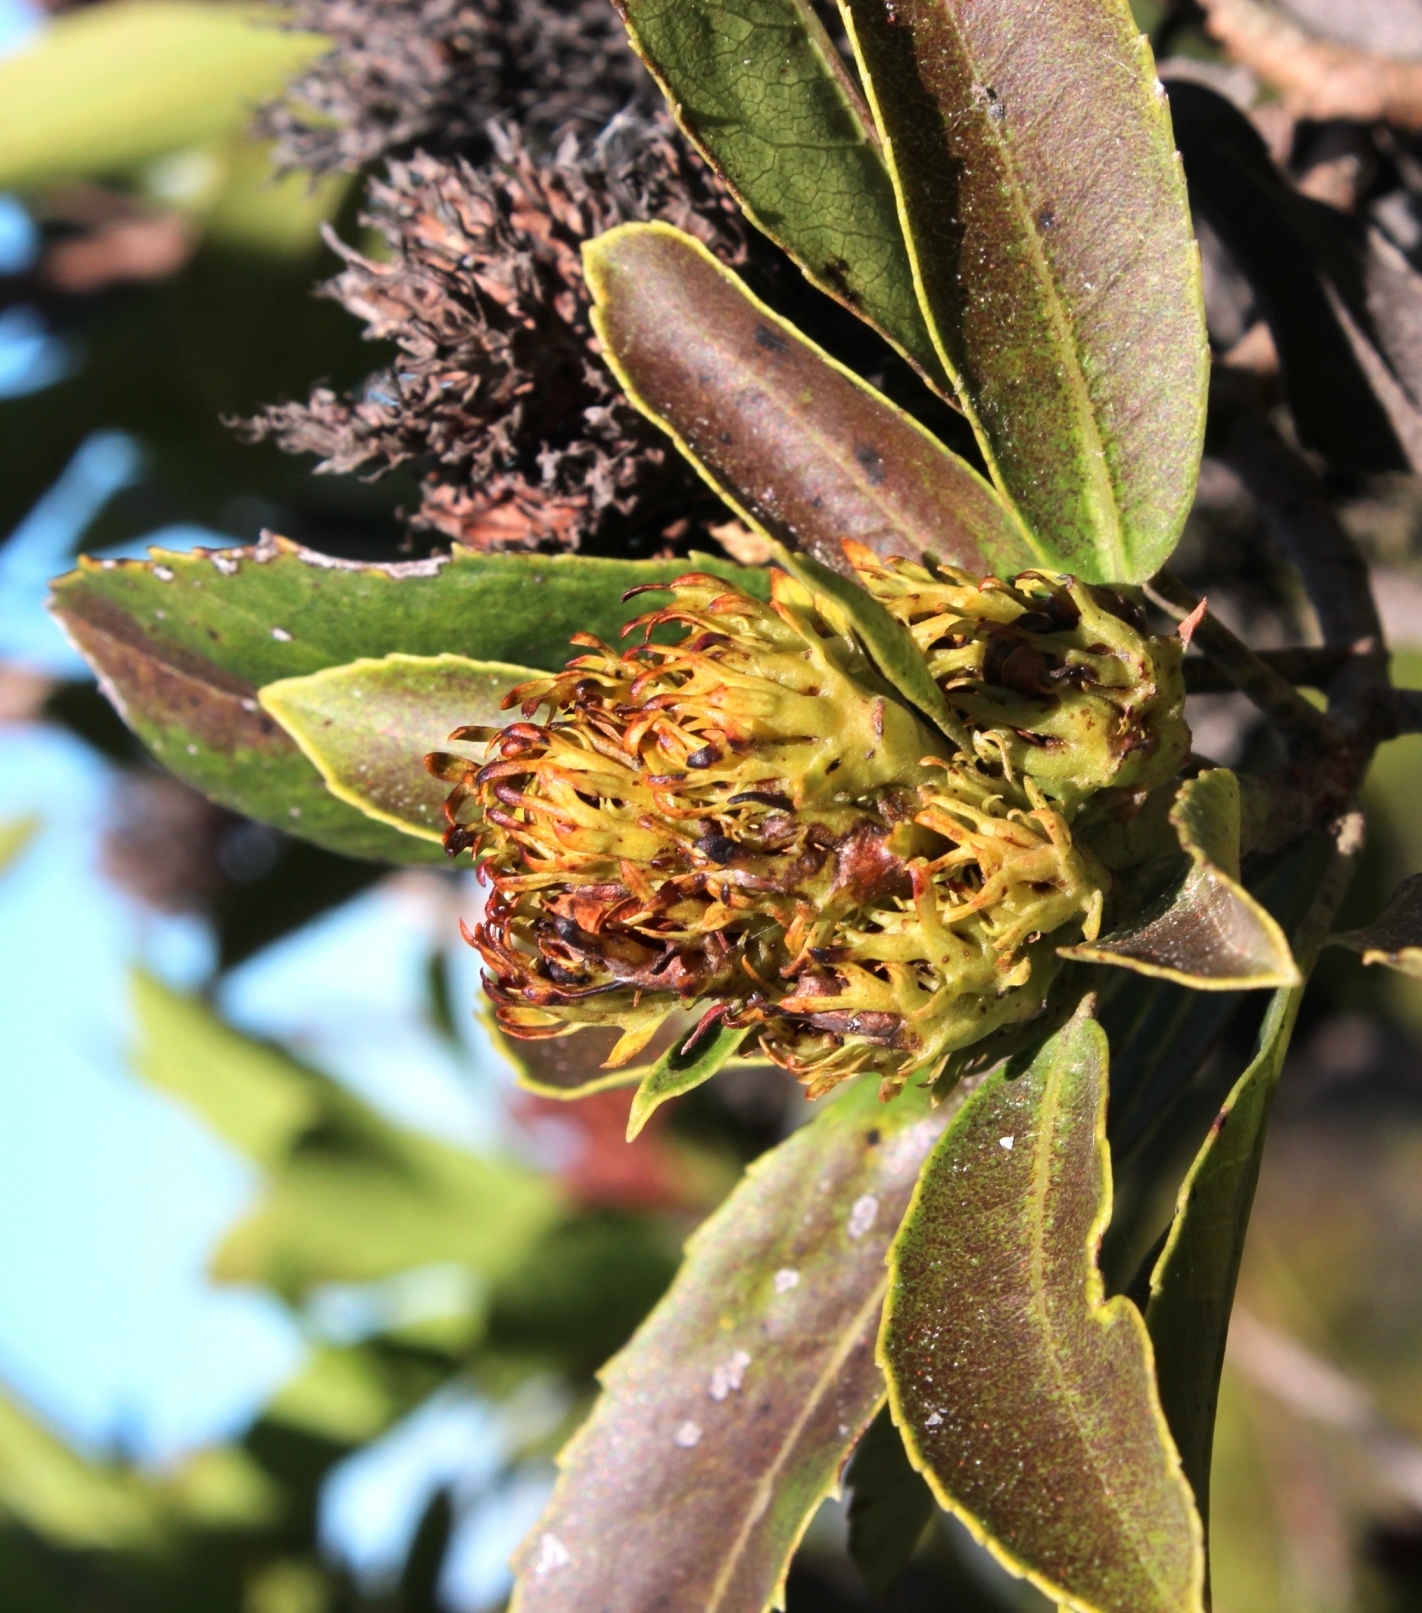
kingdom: Plantae
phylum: Tracheophyta
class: Magnoliopsida
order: Sapindales
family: Anacardiaceae
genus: Laurophyllus
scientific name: Laurophyllus capensis
